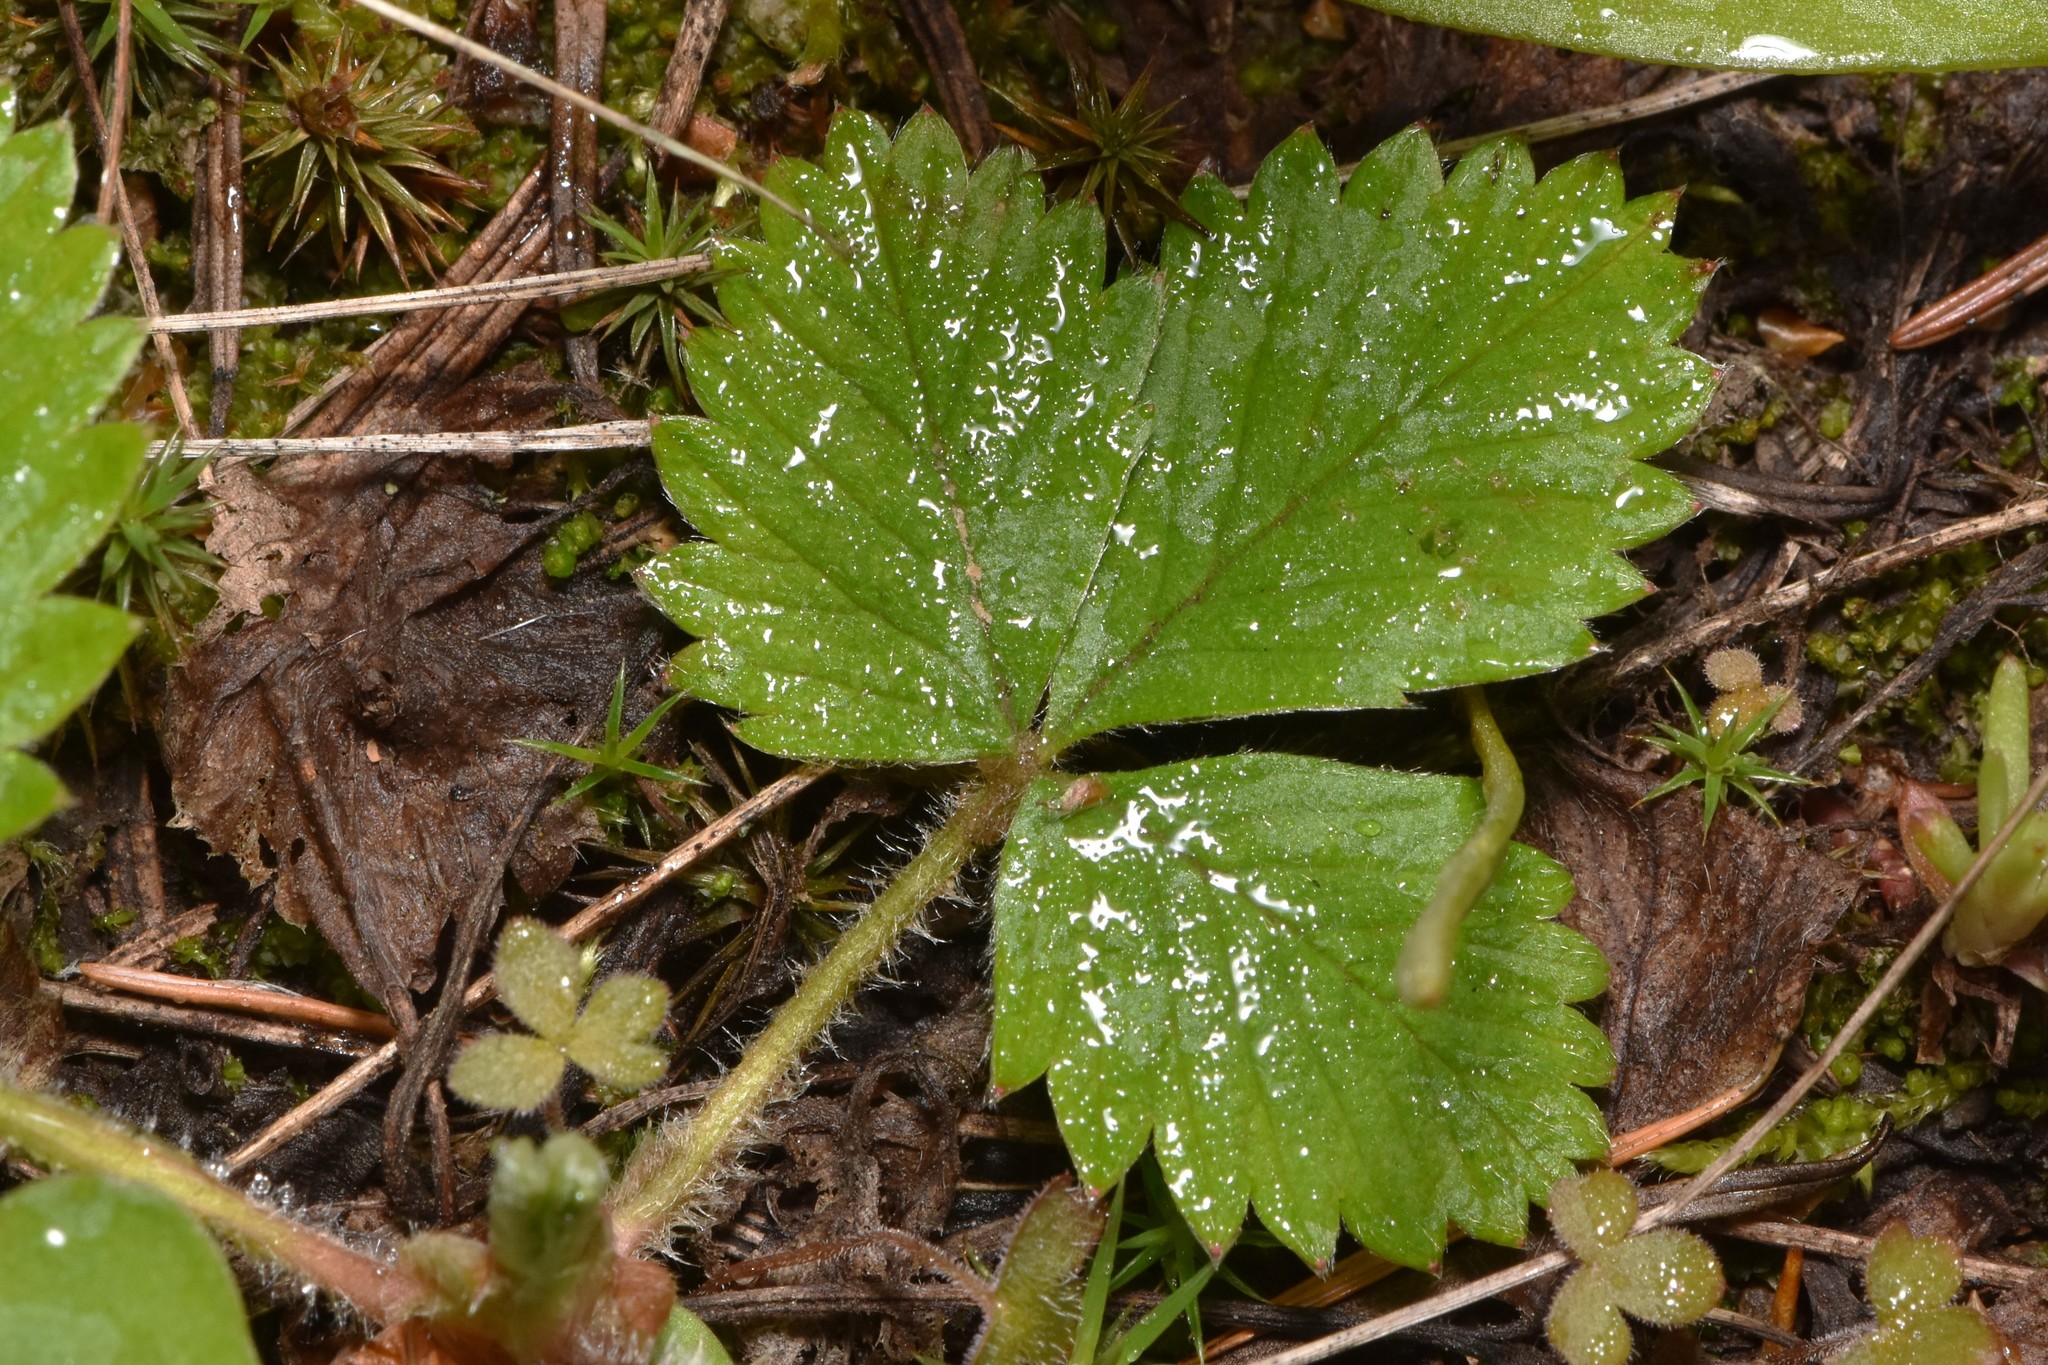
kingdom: Plantae
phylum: Tracheophyta
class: Magnoliopsida
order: Rosales
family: Rosaceae
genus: Fragaria
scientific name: Fragaria vesca
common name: Wild strawberry
